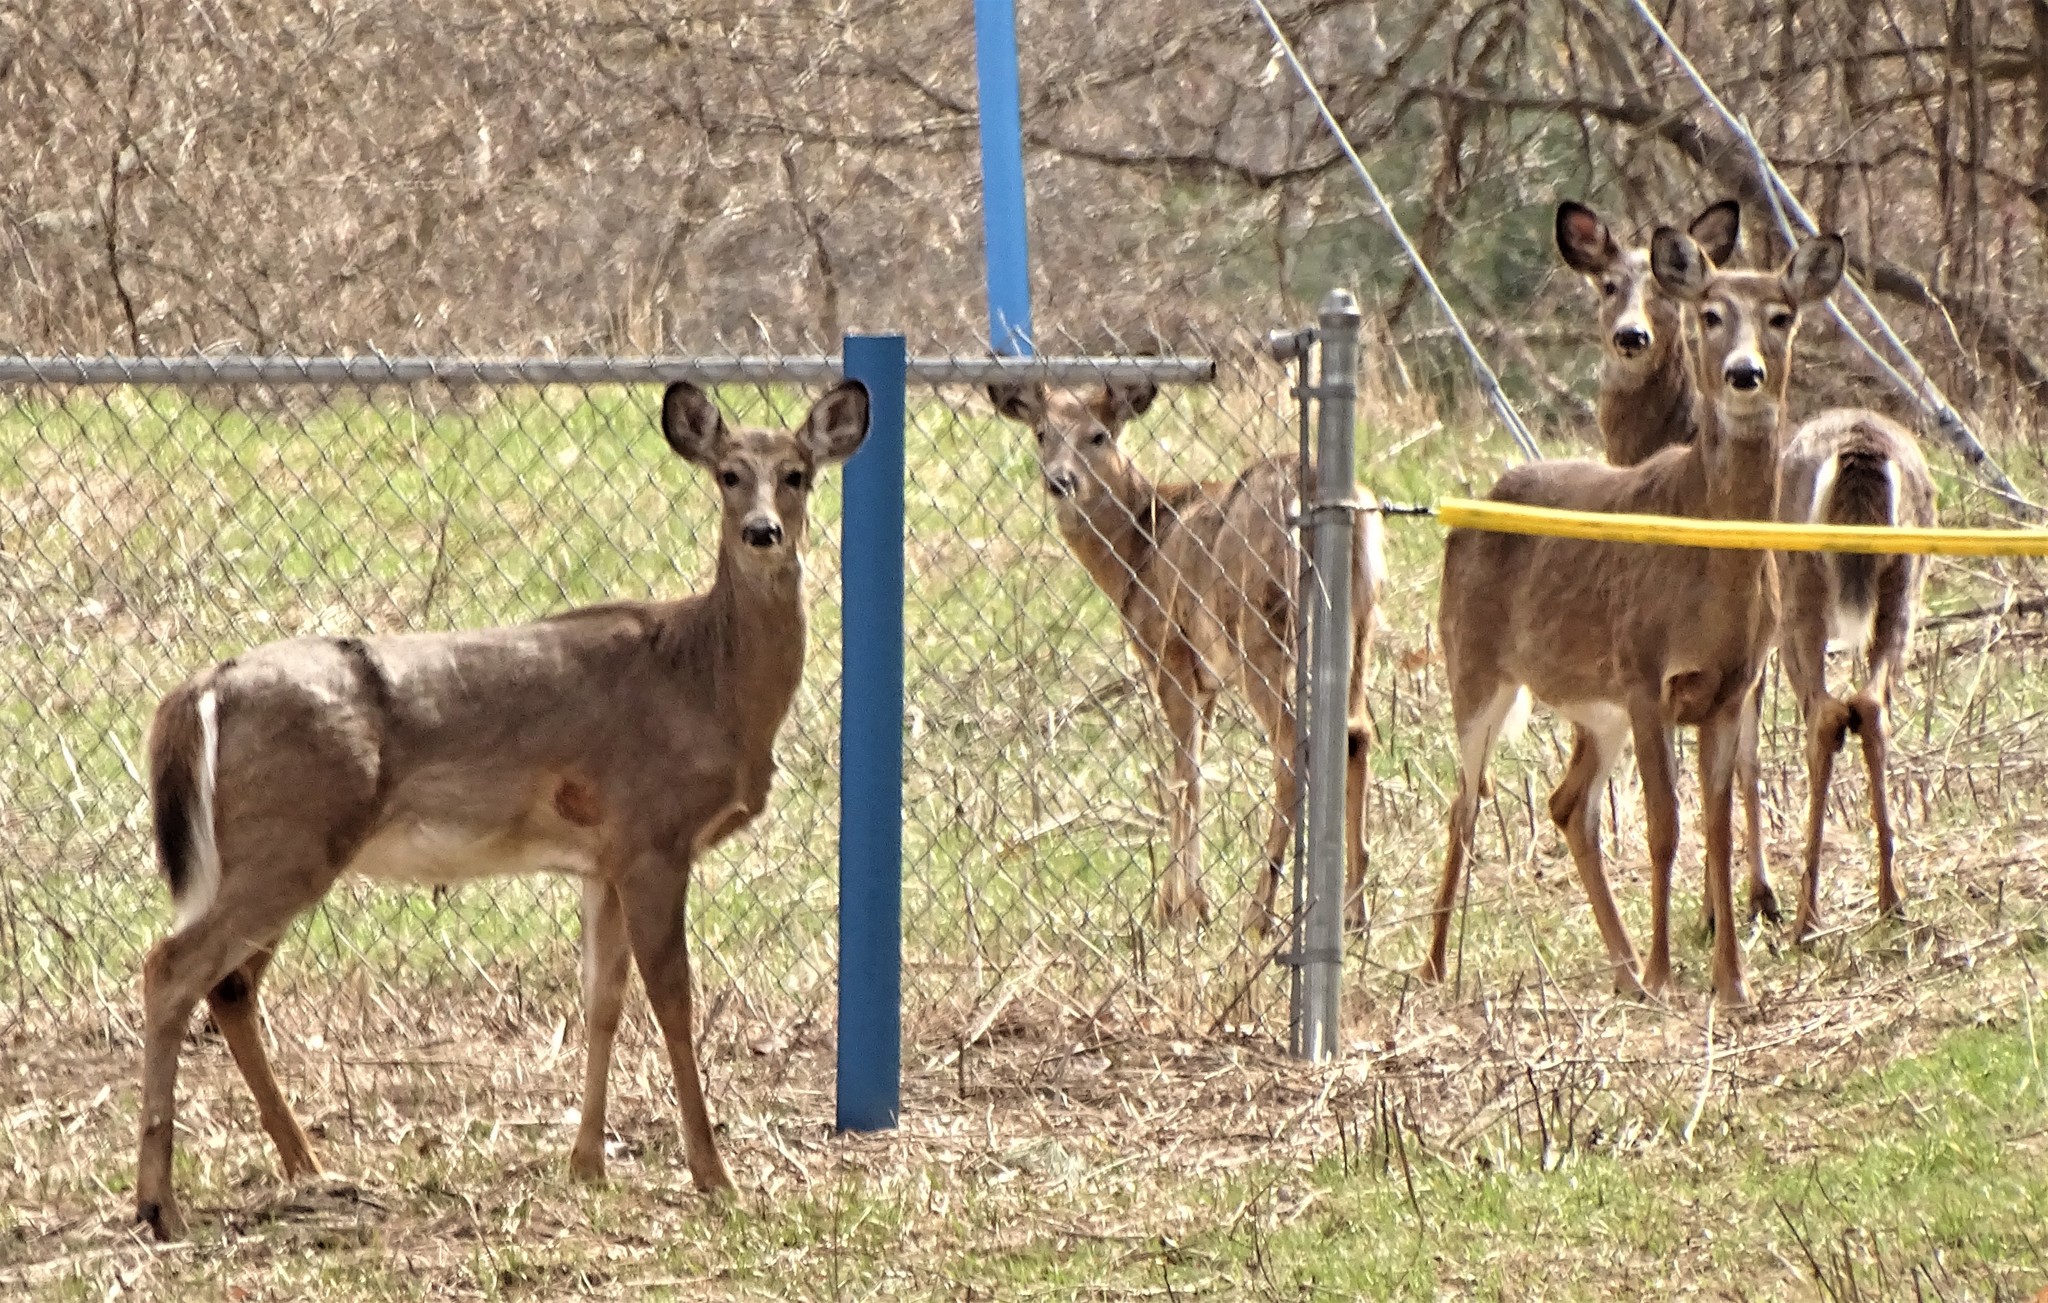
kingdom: Animalia
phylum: Chordata
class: Mammalia
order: Artiodactyla
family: Cervidae
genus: Odocoileus
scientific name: Odocoileus virginianus
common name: White-tailed deer
